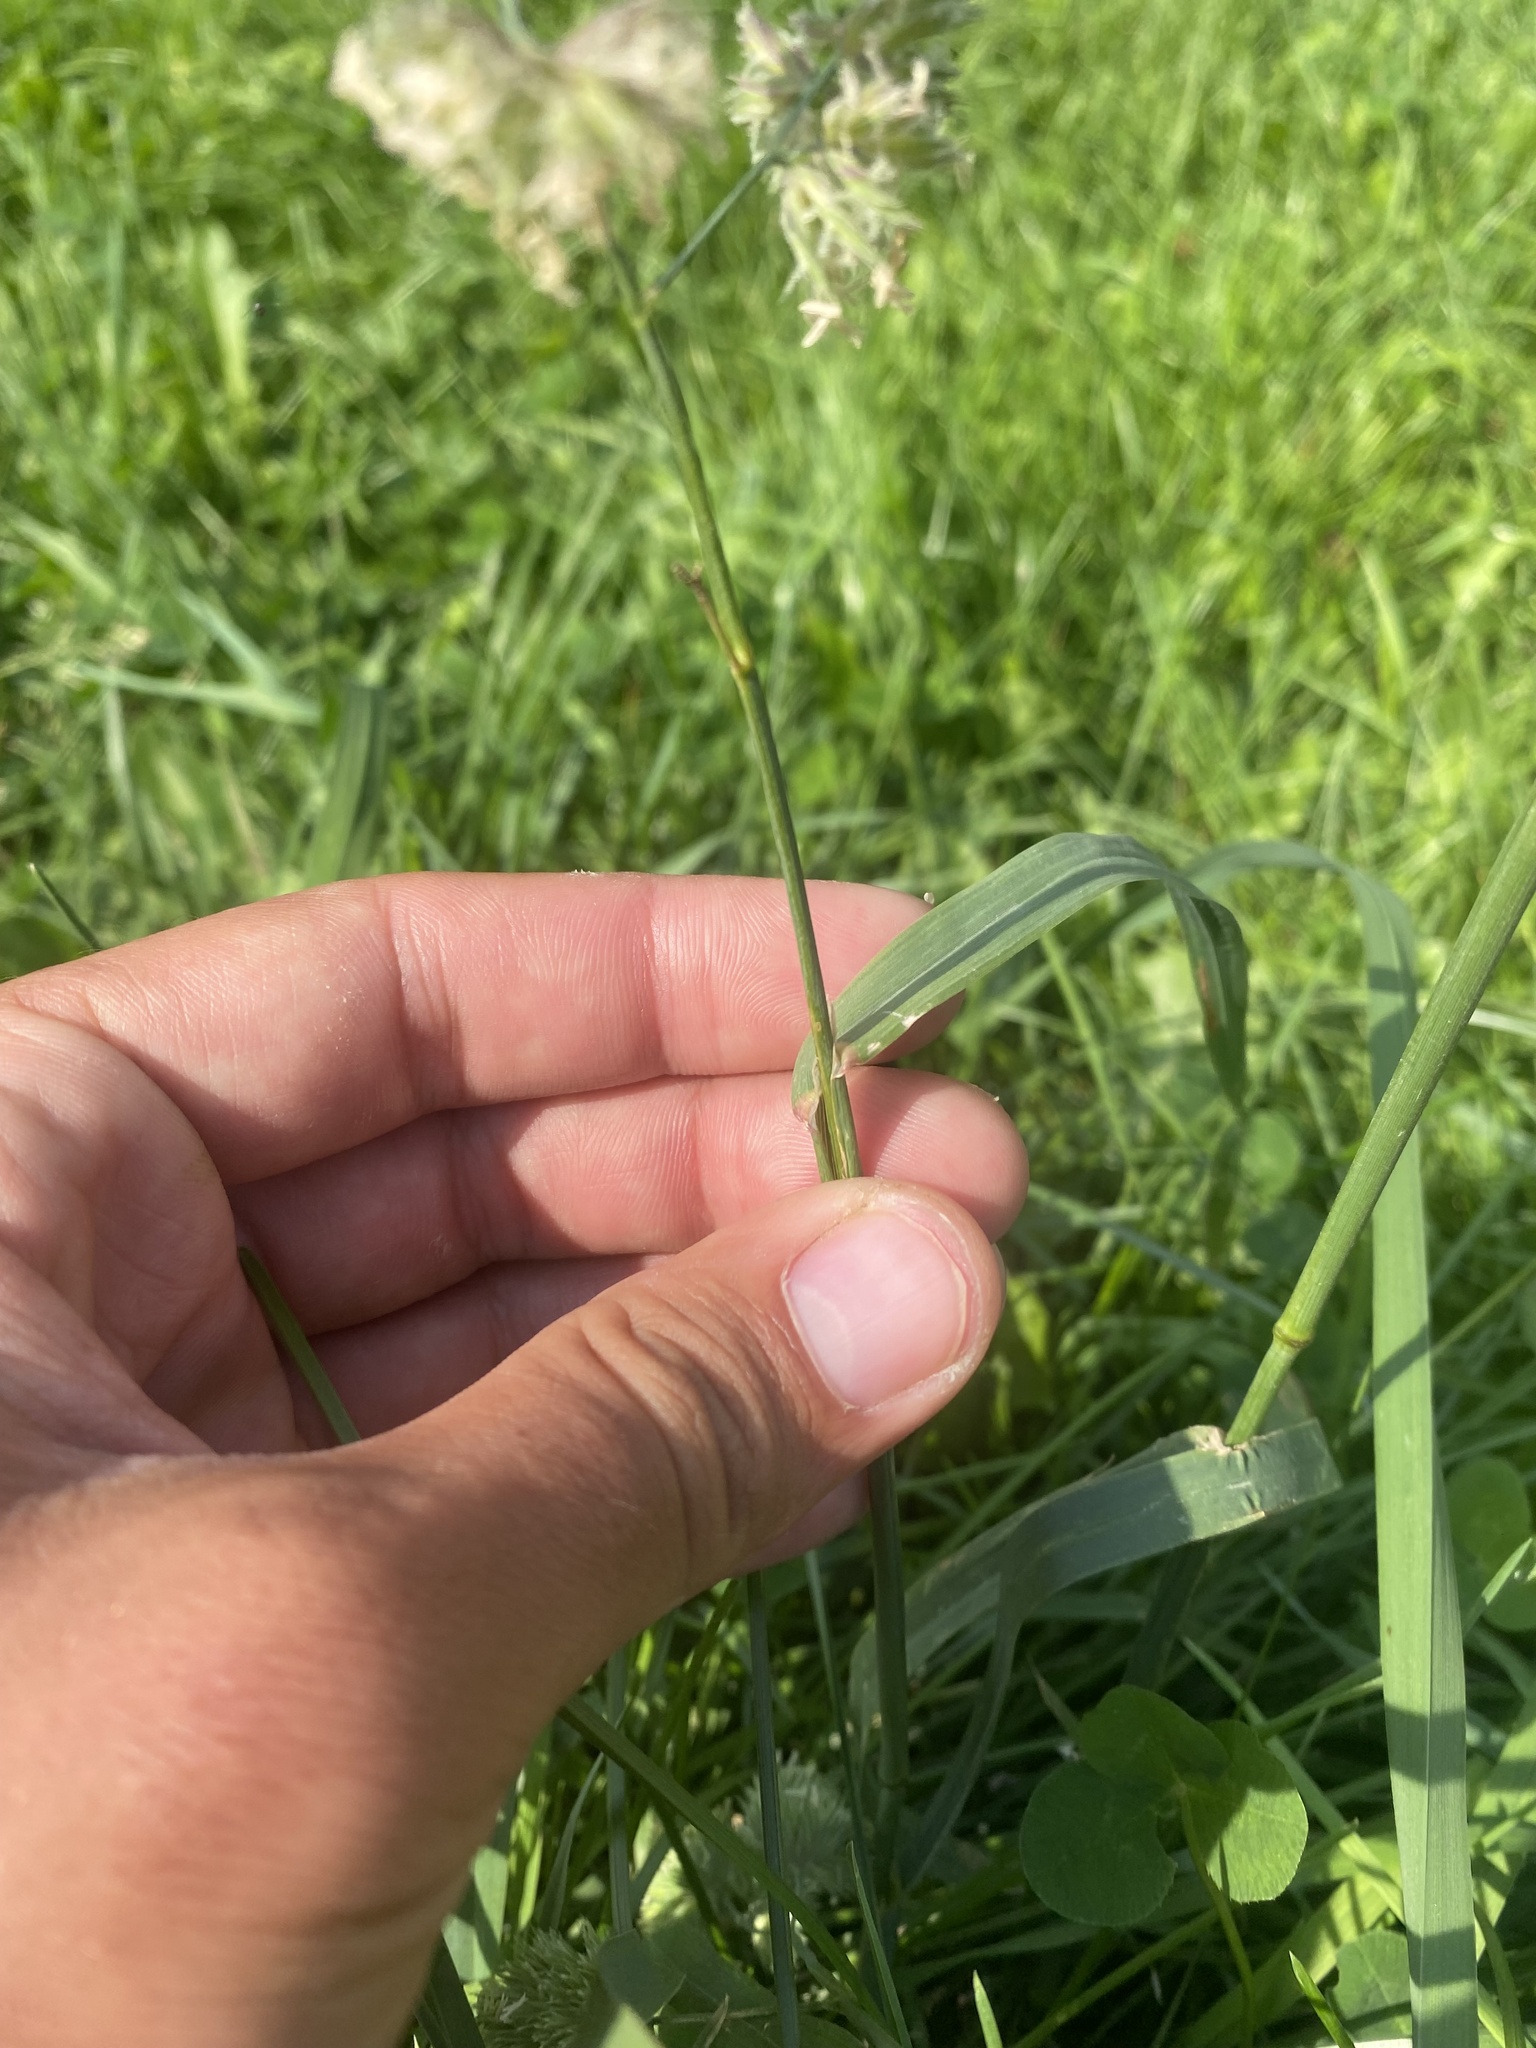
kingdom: Plantae
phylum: Tracheophyta
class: Liliopsida
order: Poales
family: Poaceae
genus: Dactylis
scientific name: Dactylis glomerata
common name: Orchardgrass
